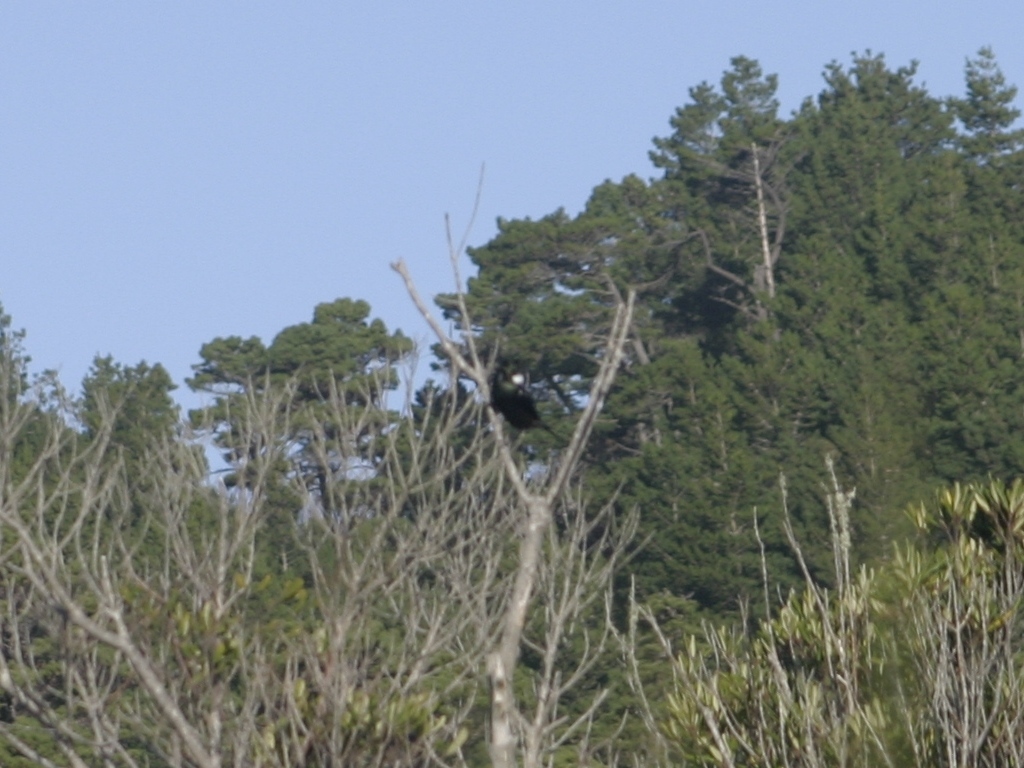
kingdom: Animalia
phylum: Chordata
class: Aves
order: Passeriformes
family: Meliphagidae
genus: Prosthemadera
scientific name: Prosthemadera novaeseelandiae
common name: Tui
